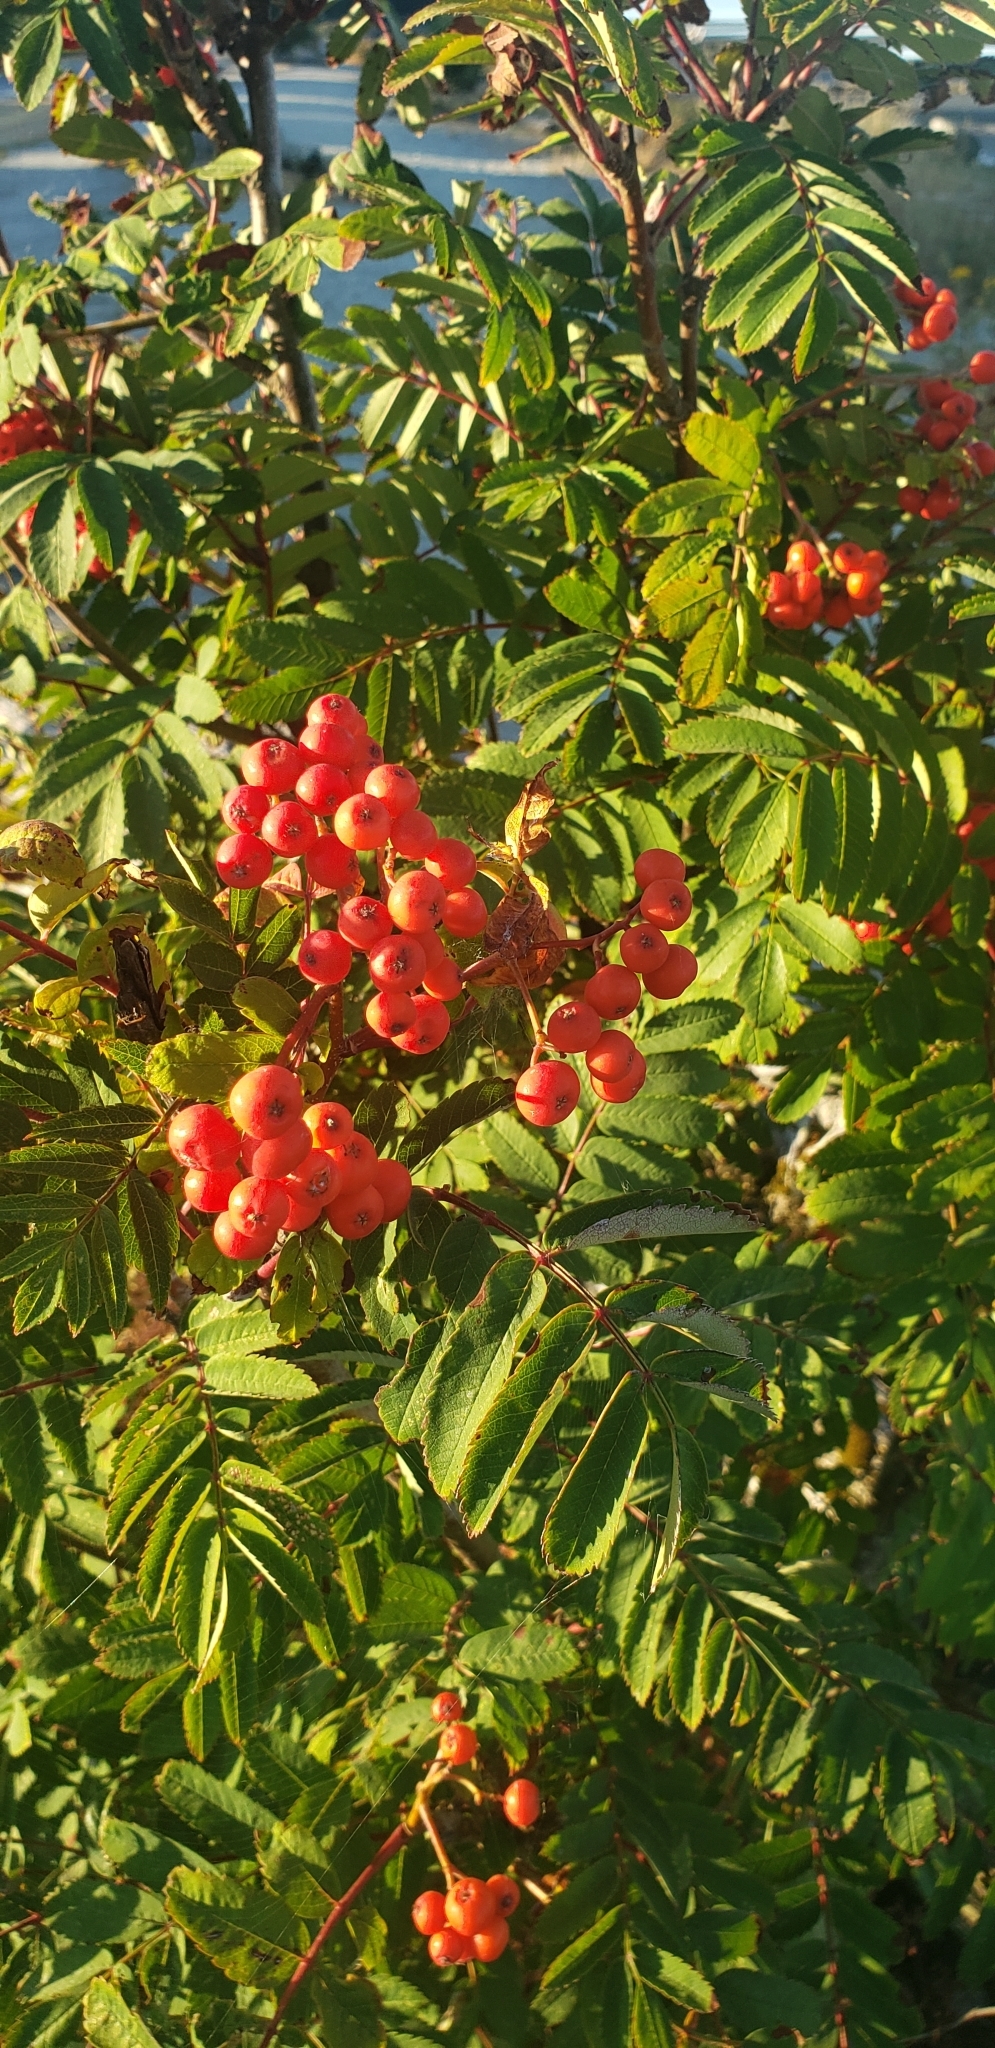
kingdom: Plantae
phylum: Tracheophyta
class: Magnoliopsida
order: Rosales
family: Rosaceae
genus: Sorbus
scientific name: Sorbus aucuparia
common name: Rowan
